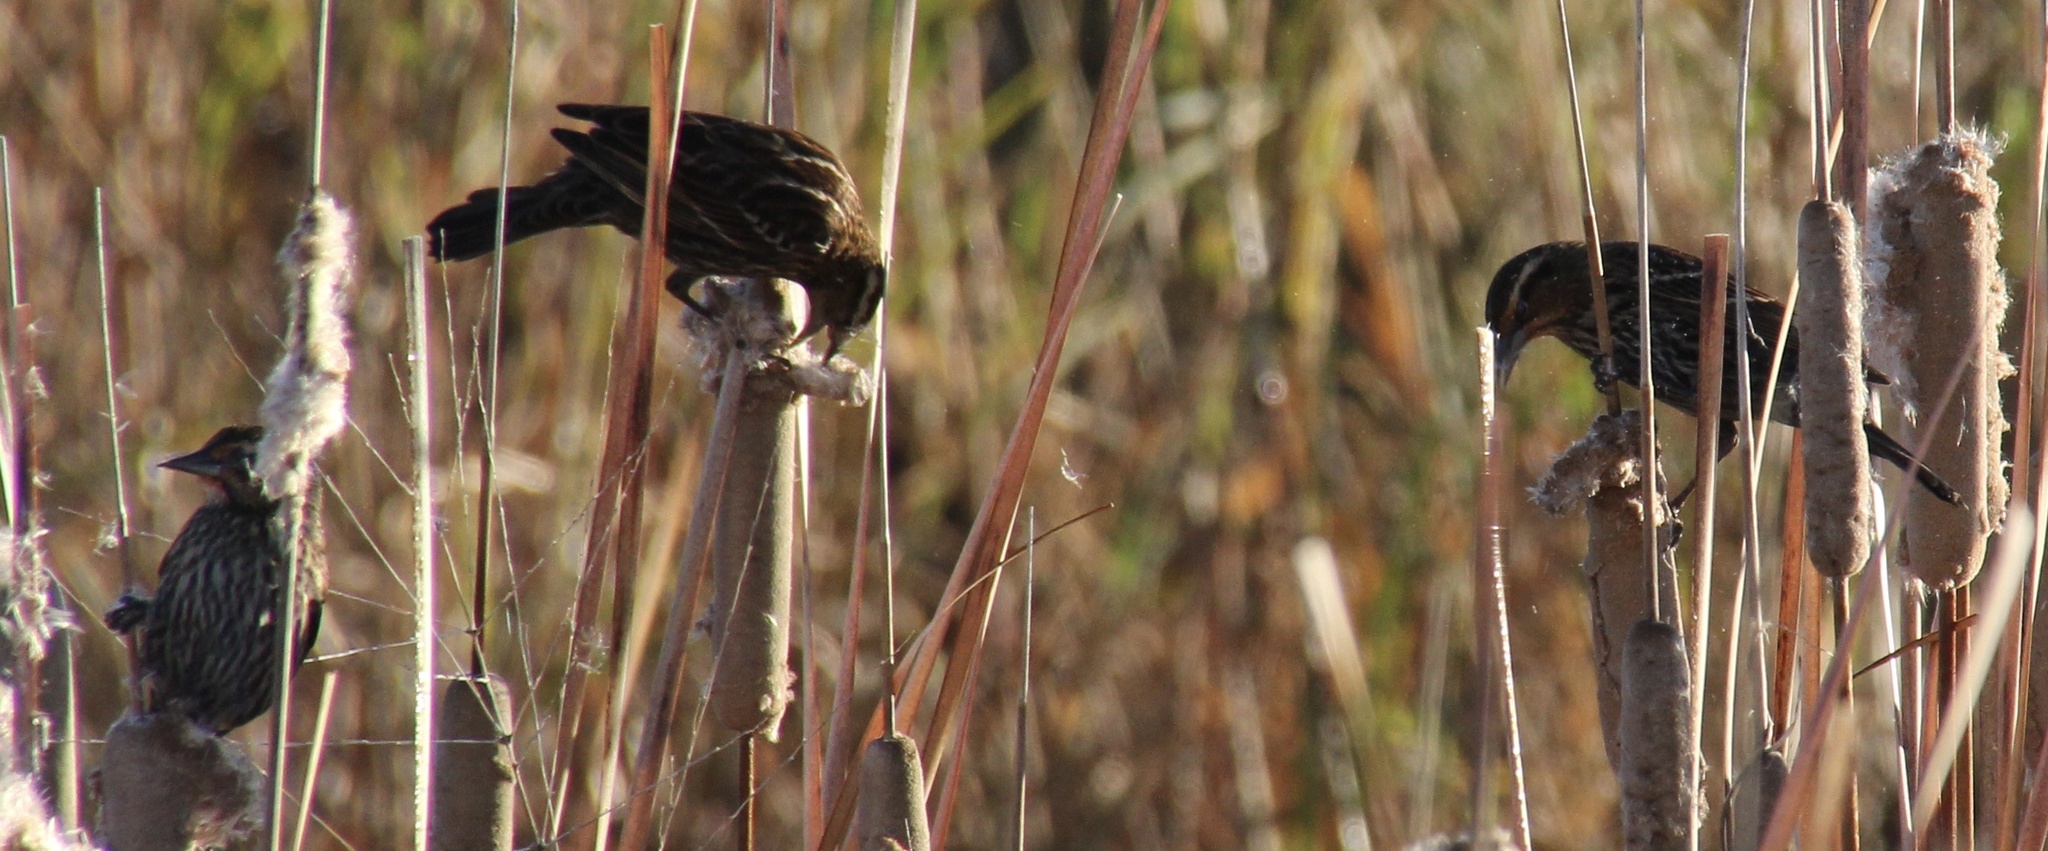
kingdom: Animalia
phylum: Chordata
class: Aves
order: Passeriformes
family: Icteridae
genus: Agelaius
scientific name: Agelaius phoeniceus
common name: Red-winged blackbird
